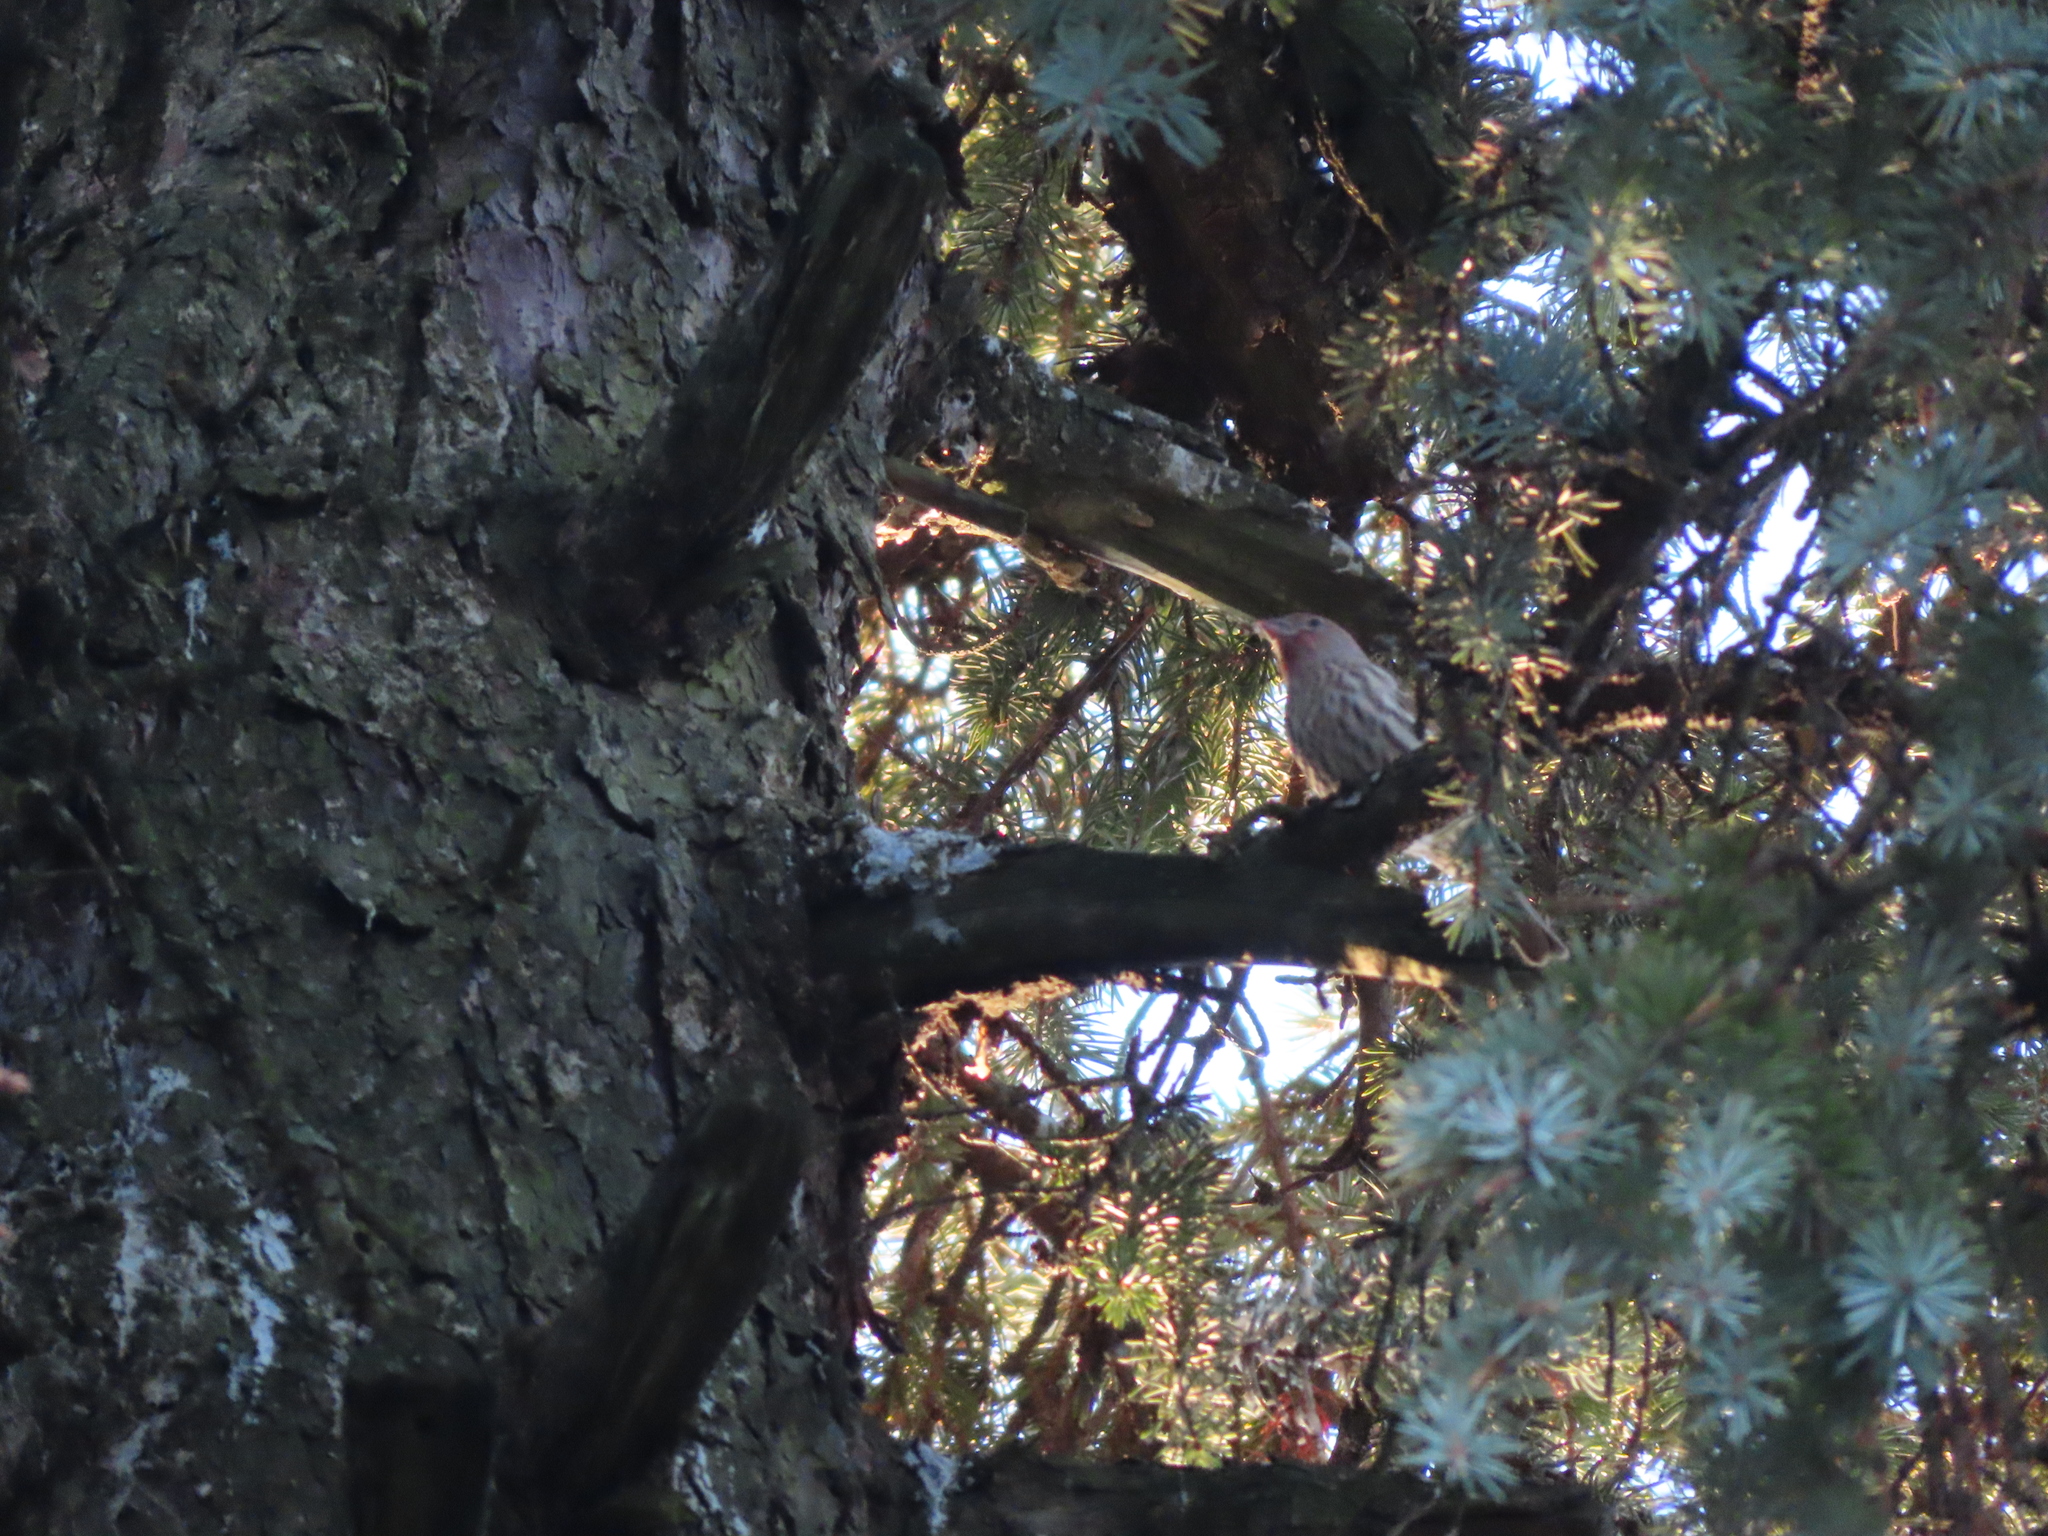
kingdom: Animalia
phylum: Chordata
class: Aves
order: Passeriformes
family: Fringillidae
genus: Haemorhous
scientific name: Haemorhous mexicanus
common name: House finch
